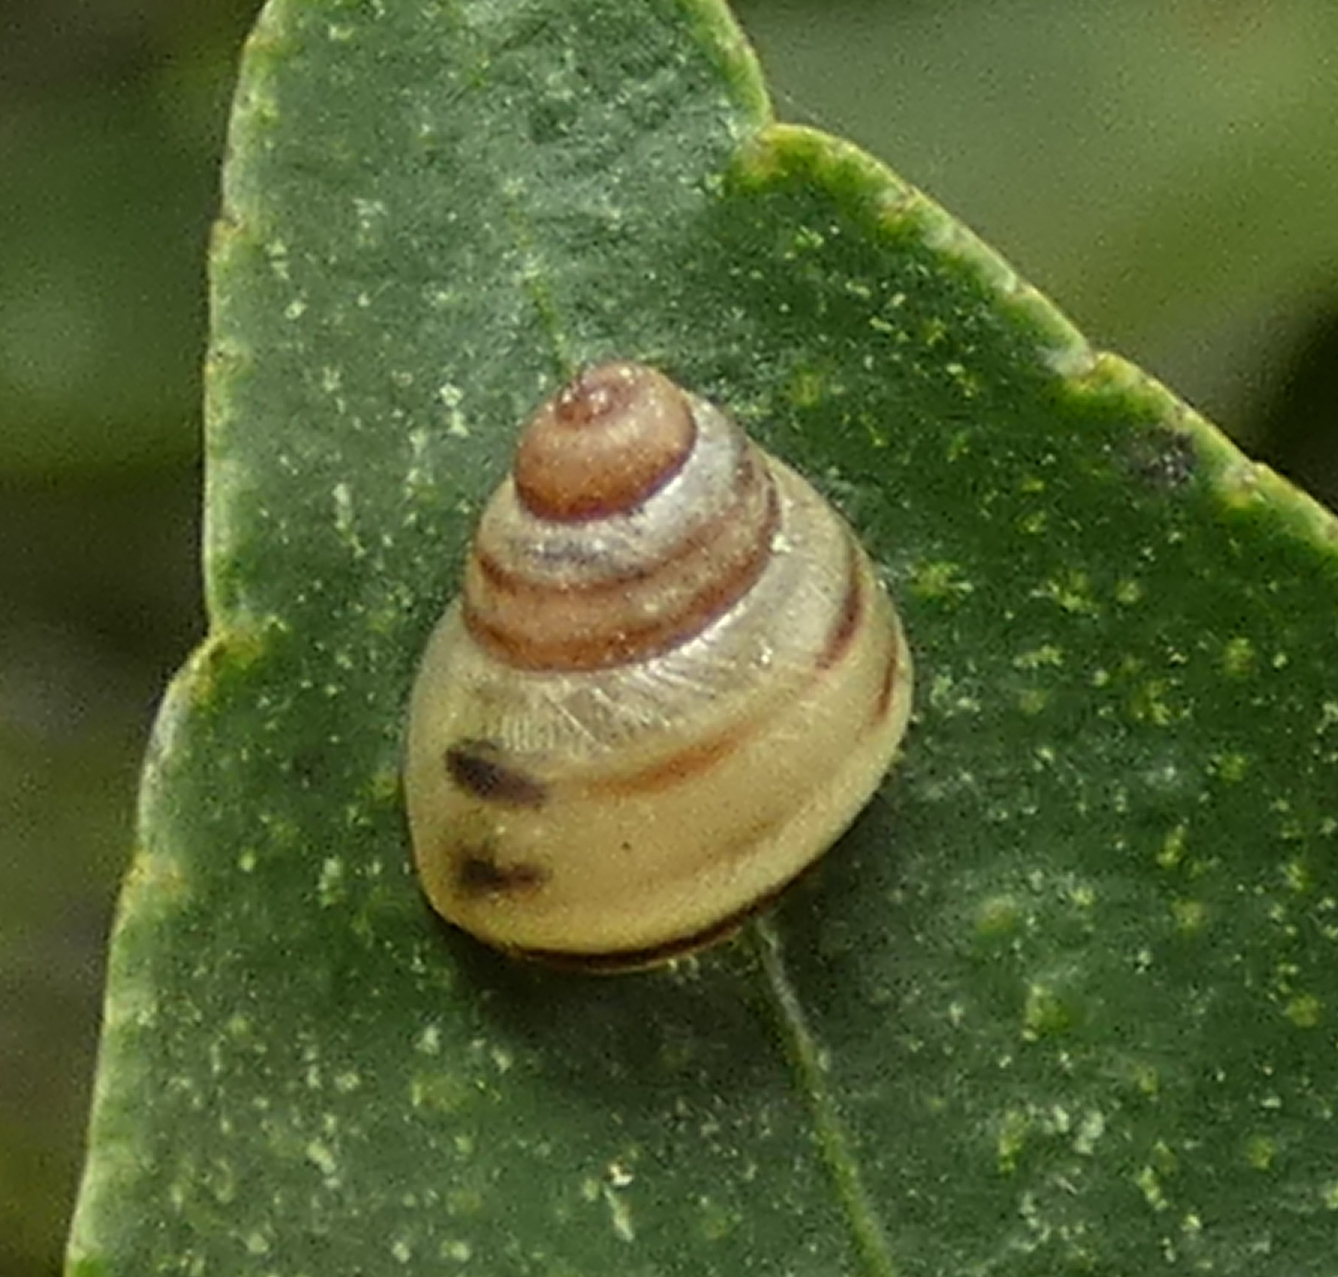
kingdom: Animalia
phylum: Mollusca
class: Gastropoda
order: Stylommatophora
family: Bulimulidae
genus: Drymaeus
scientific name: Drymaeus
